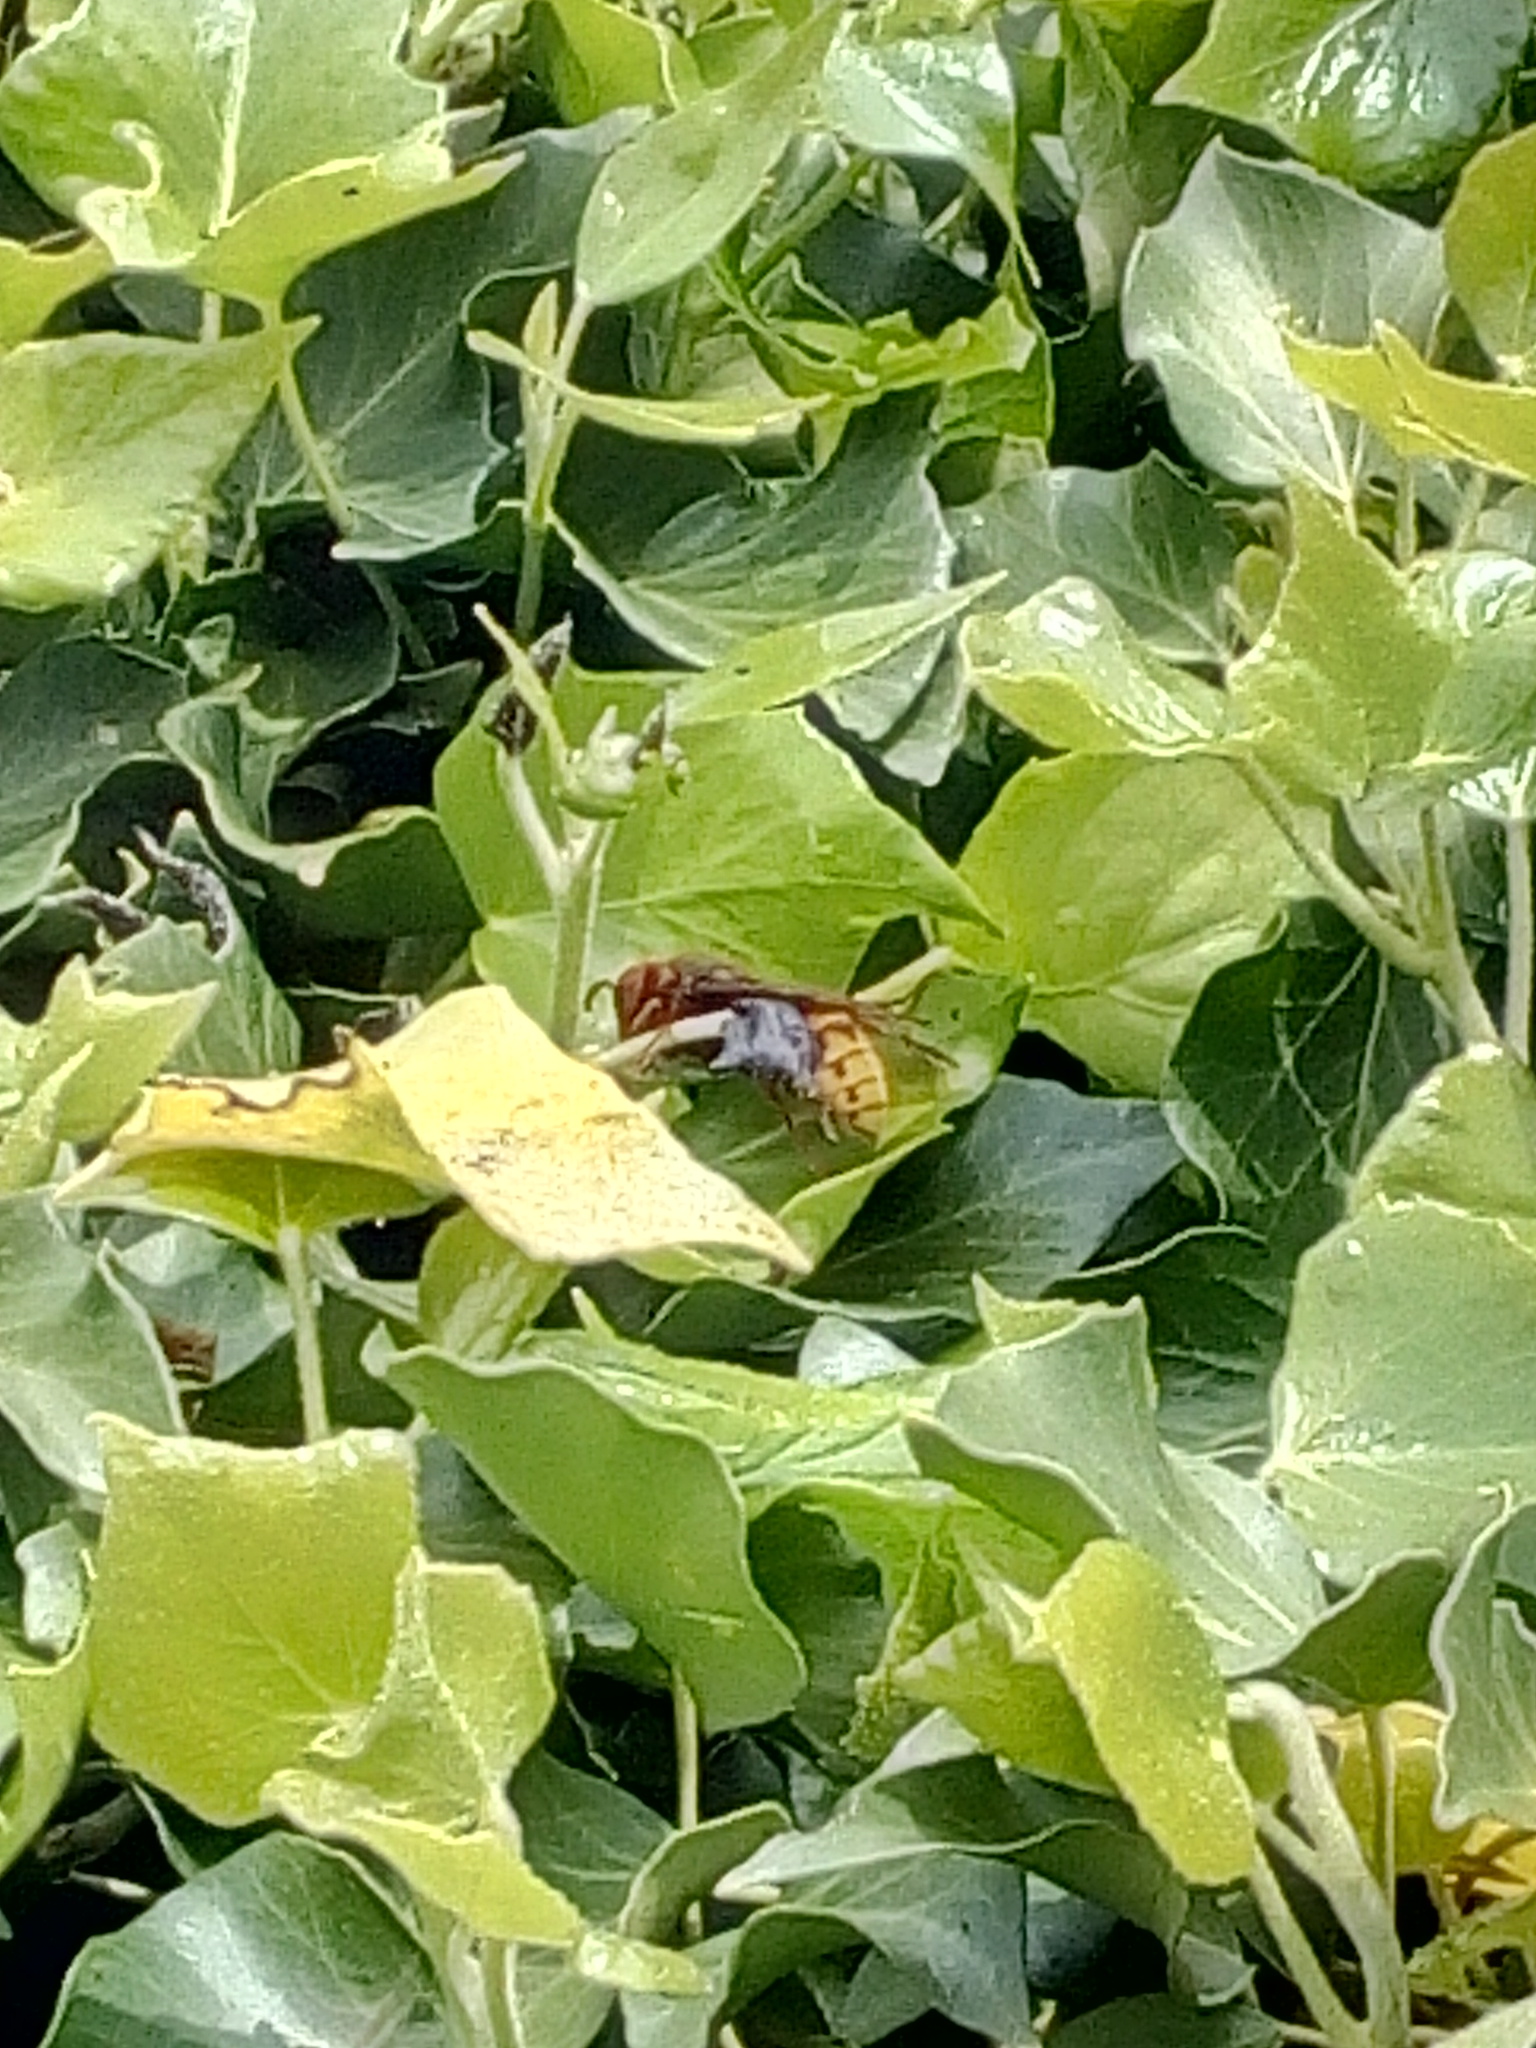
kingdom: Animalia
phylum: Arthropoda
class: Insecta
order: Hymenoptera
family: Vespidae
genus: Vespa
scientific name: Vespa crabro
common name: Hornet
